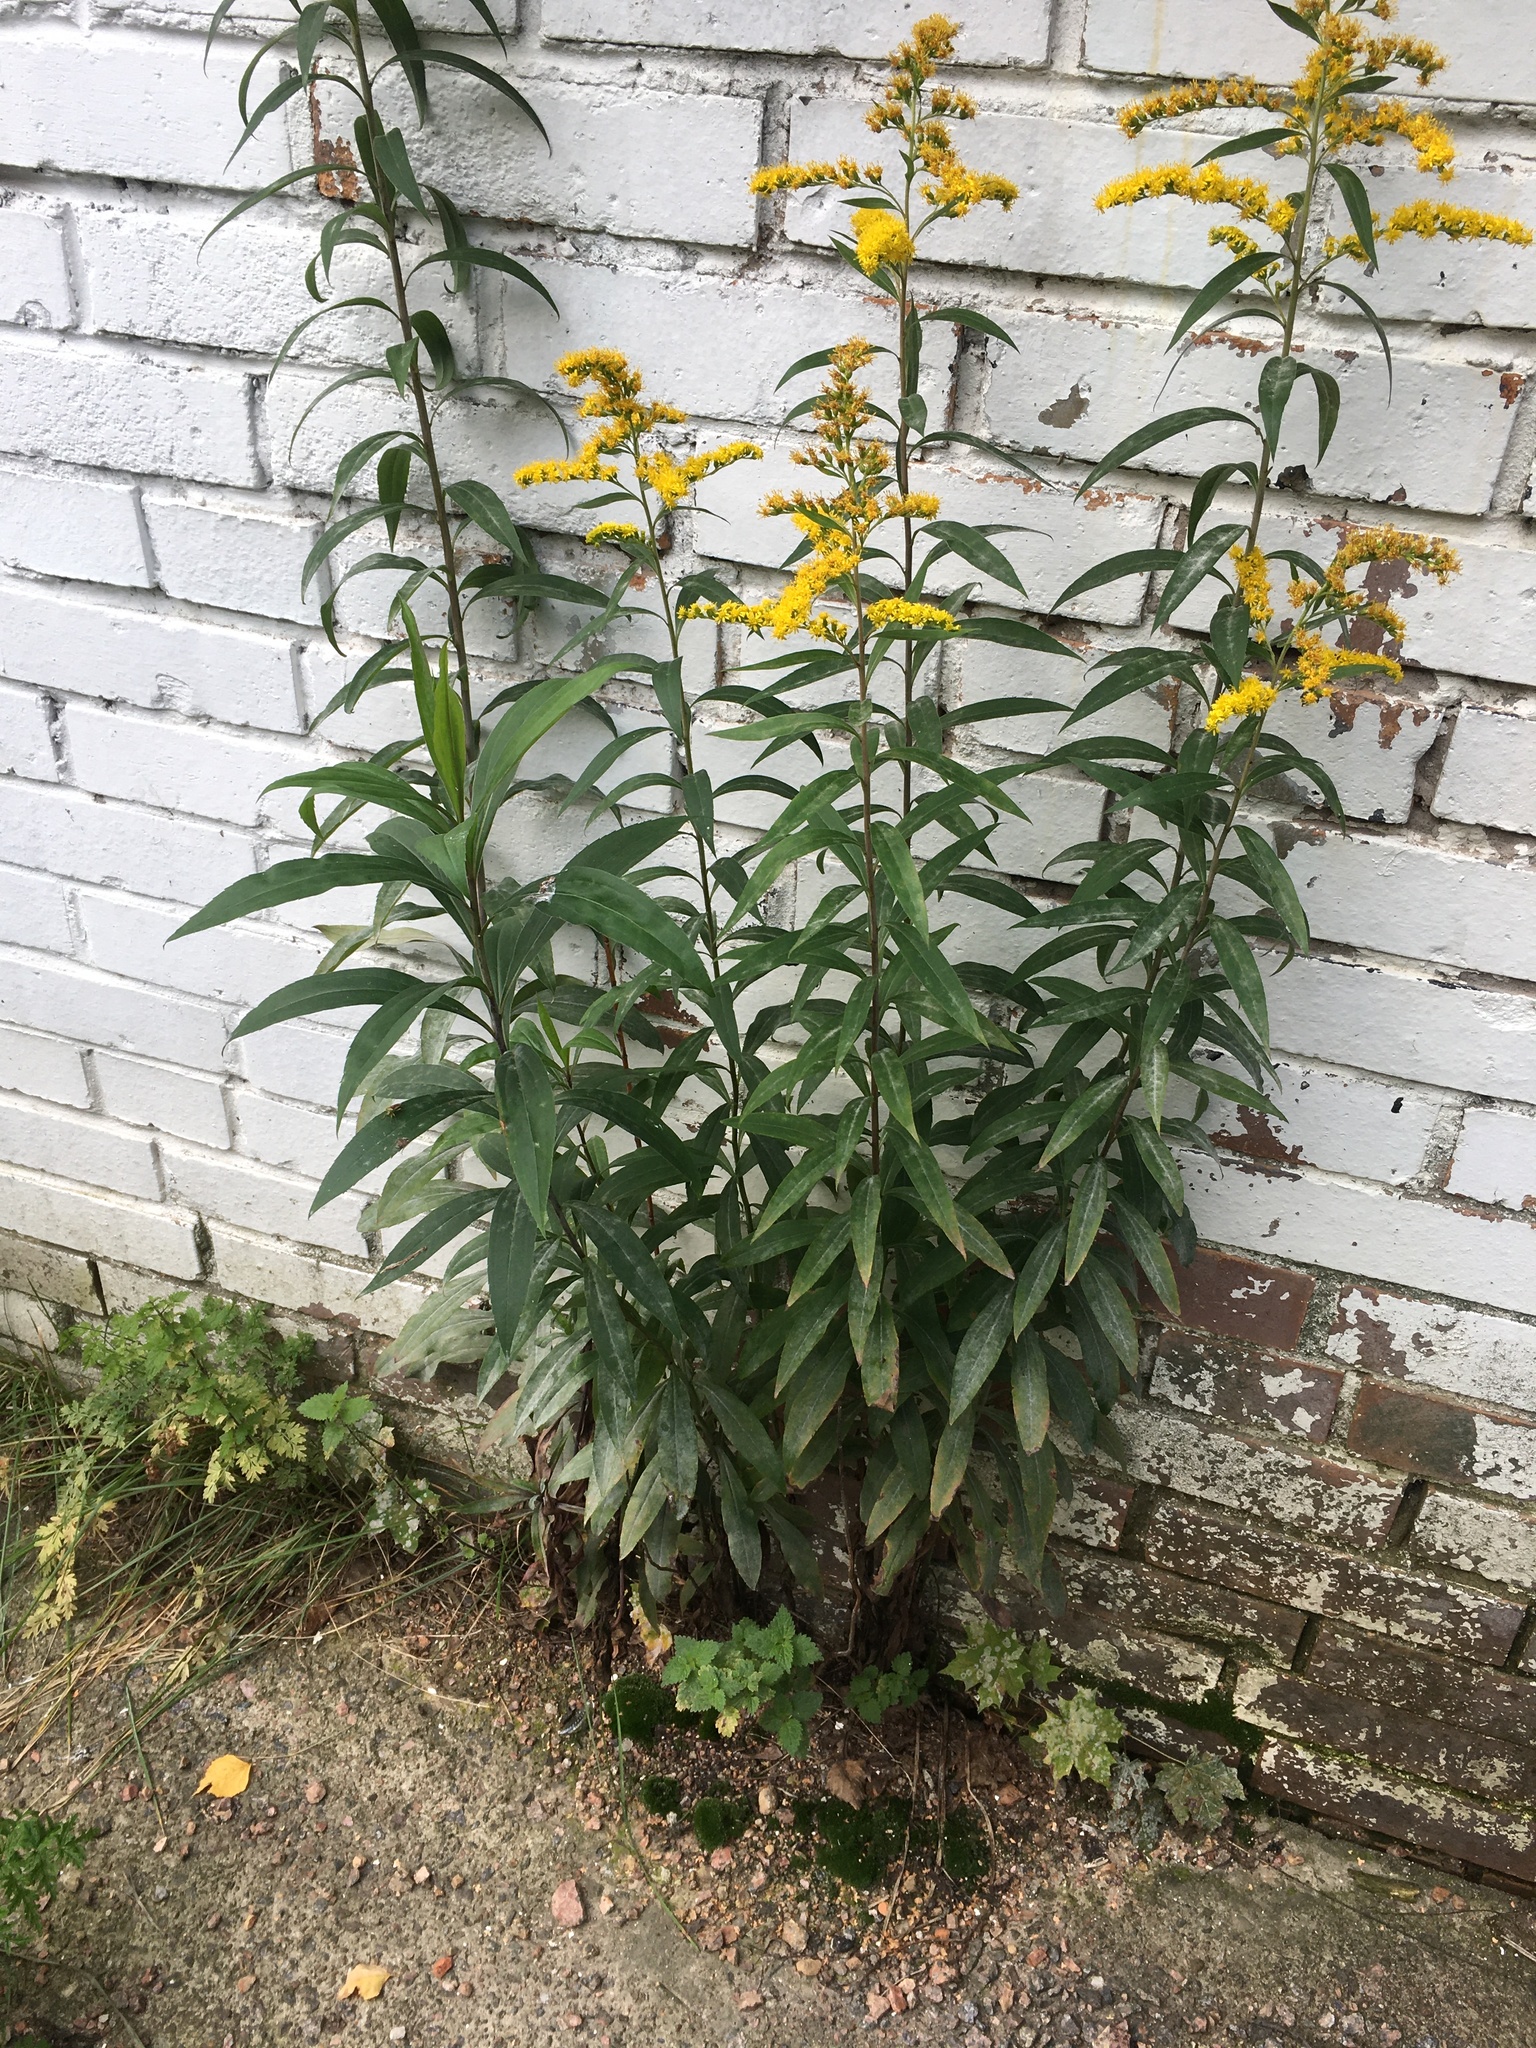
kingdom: Plantae
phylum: Tracheophyta
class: Magnoliopsida
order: Asterales
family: Asteraceae
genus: Solidago
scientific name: Solidago canadensis
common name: Canada goldenrod
